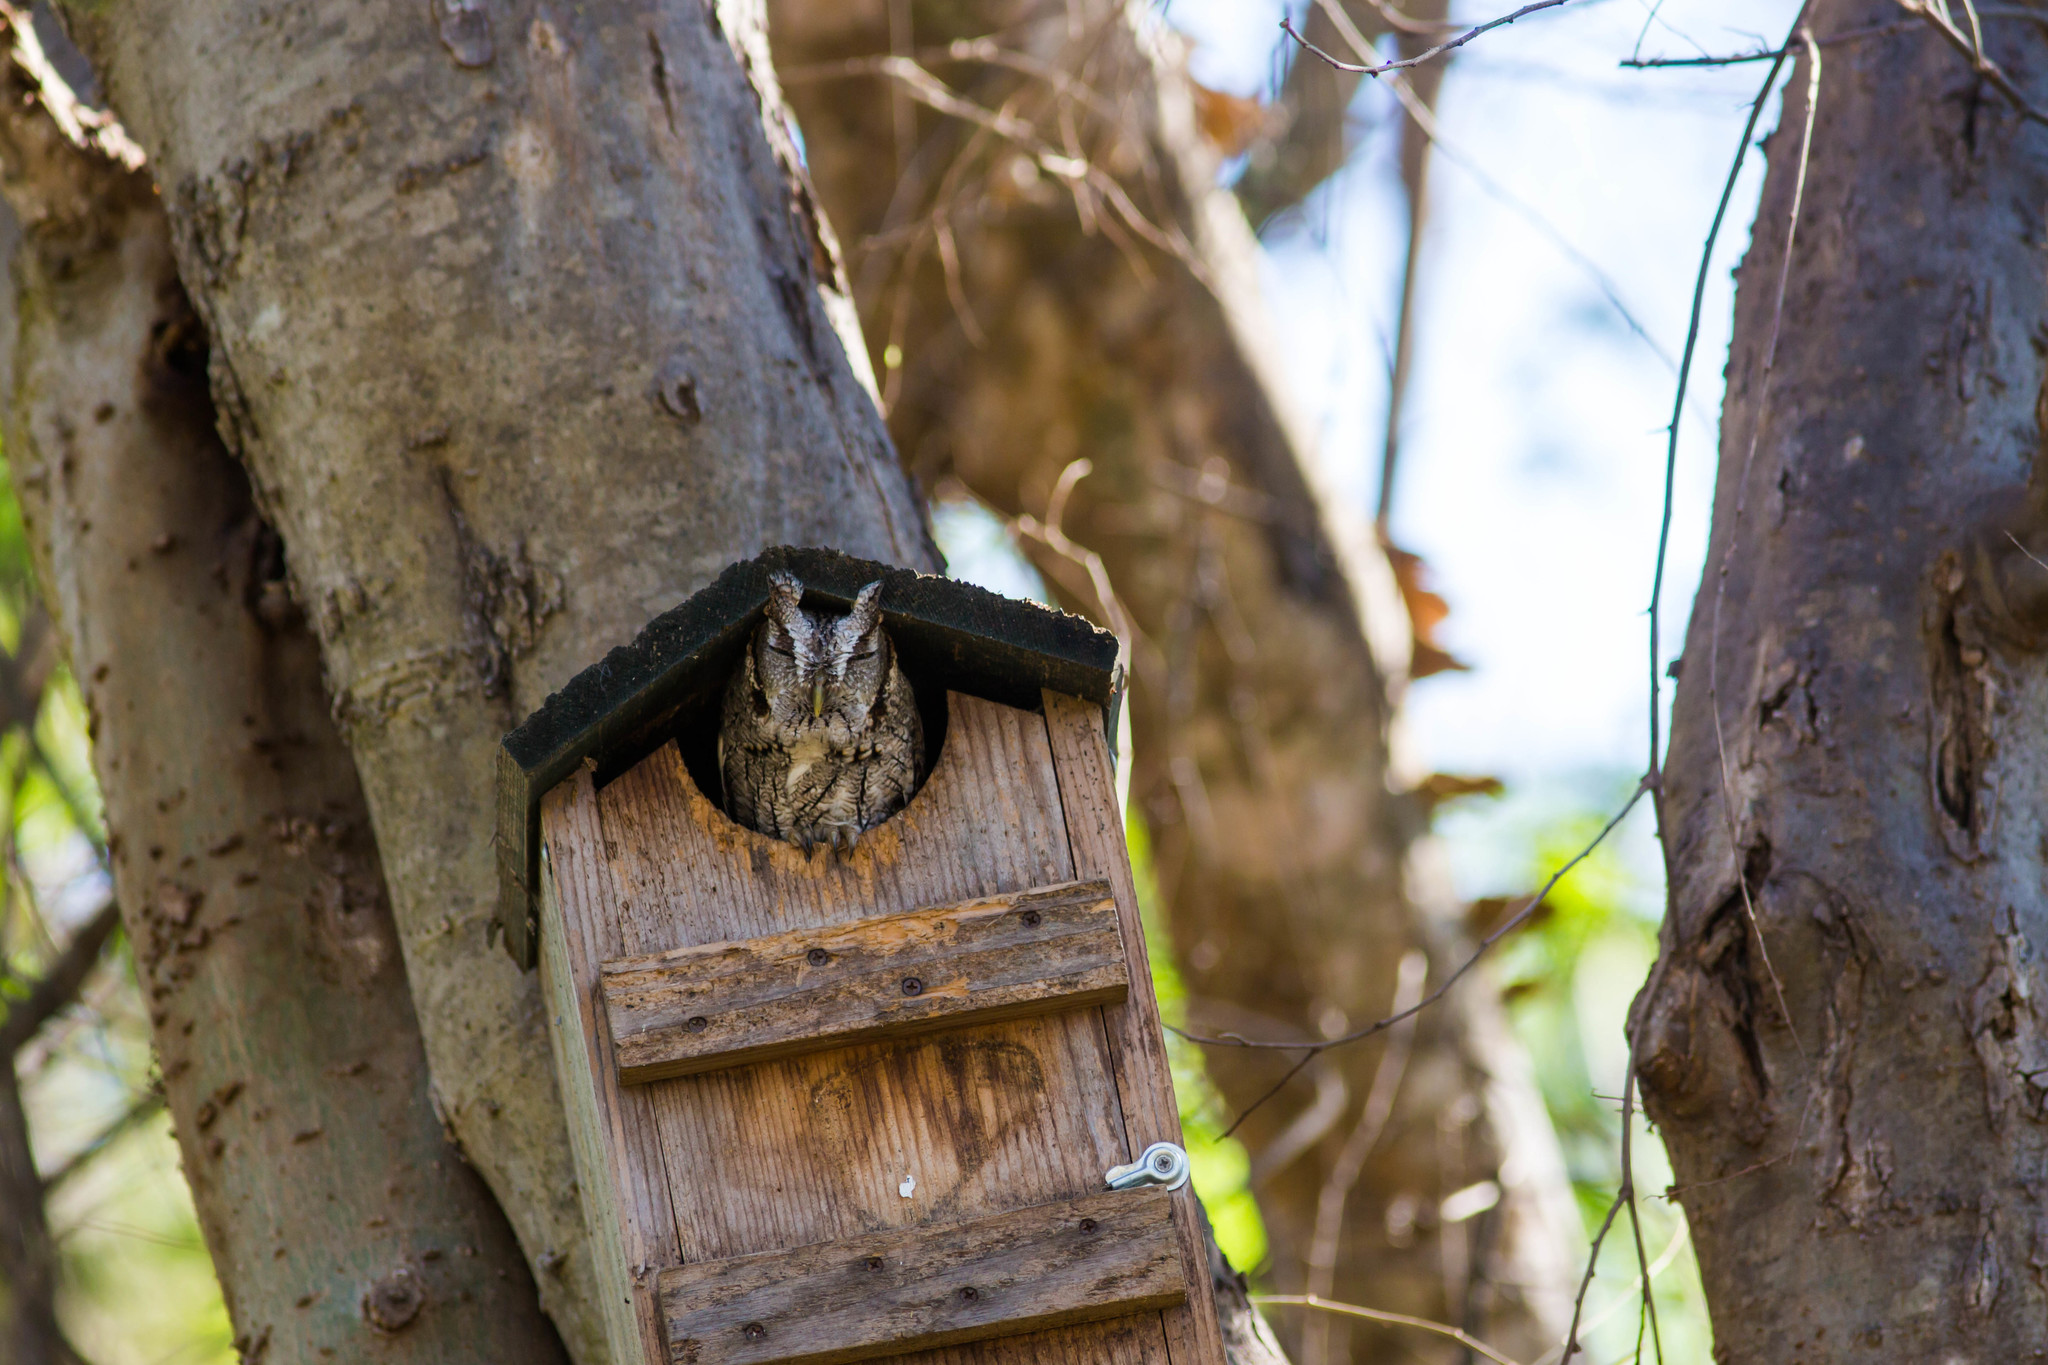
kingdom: Animalia
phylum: Chordata
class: Aves
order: Strigiformes
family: Strigidae
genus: Megascops
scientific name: Megascops asio
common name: Eastern screech-owl
